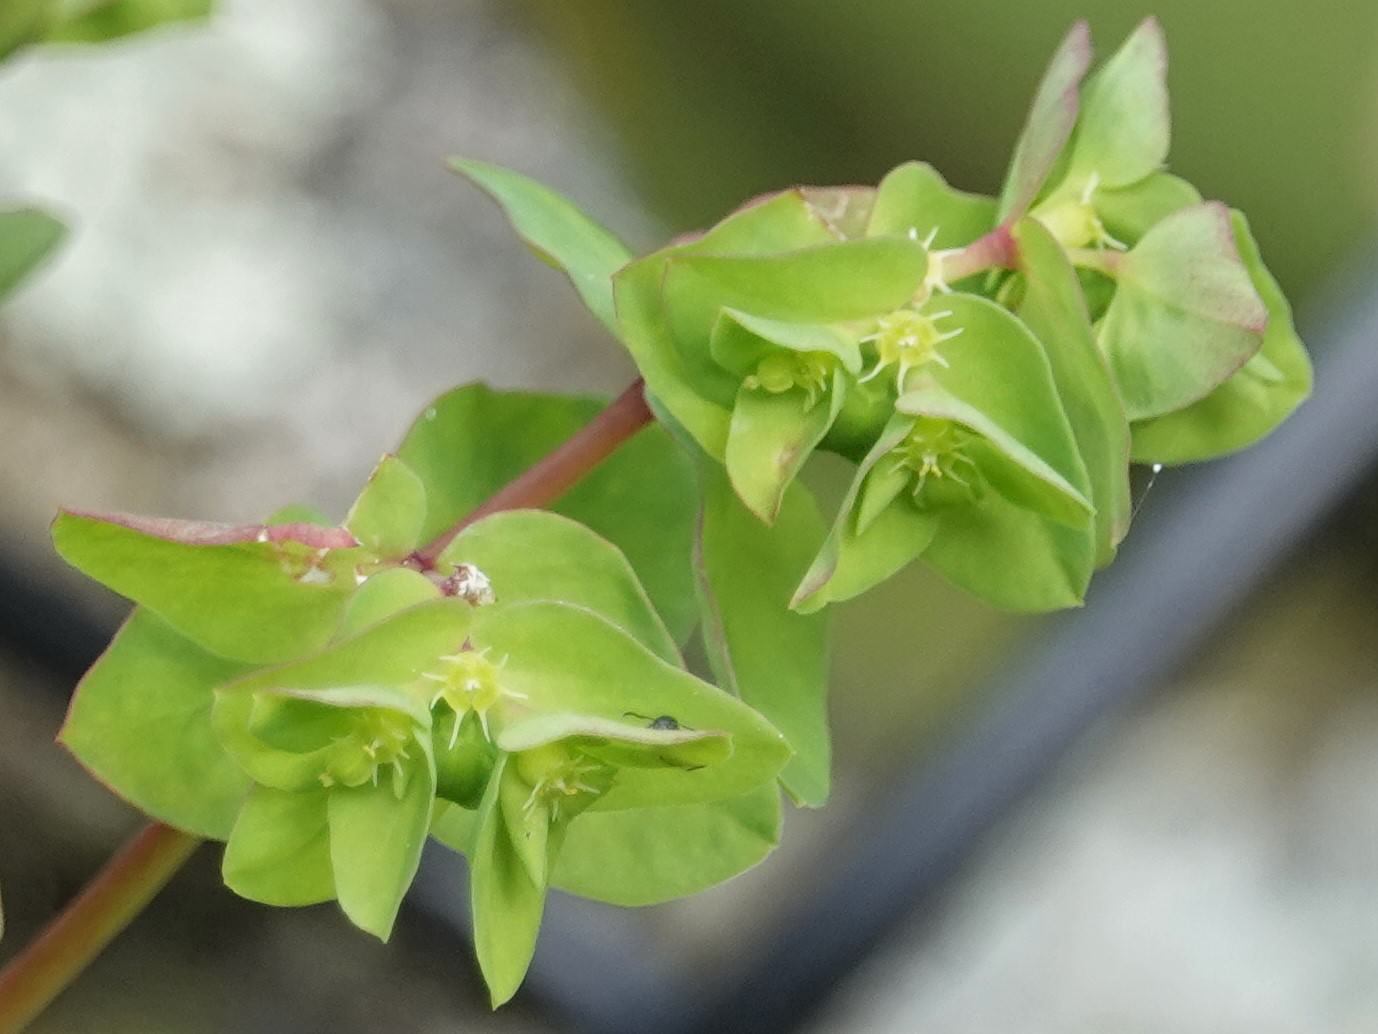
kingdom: Plantae
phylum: Tracheophyta
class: Magnoliopsida
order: Malpighiales
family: Euphorbiaceae
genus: Euphorbia
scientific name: Euphorbia peplus
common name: Petty spurge
